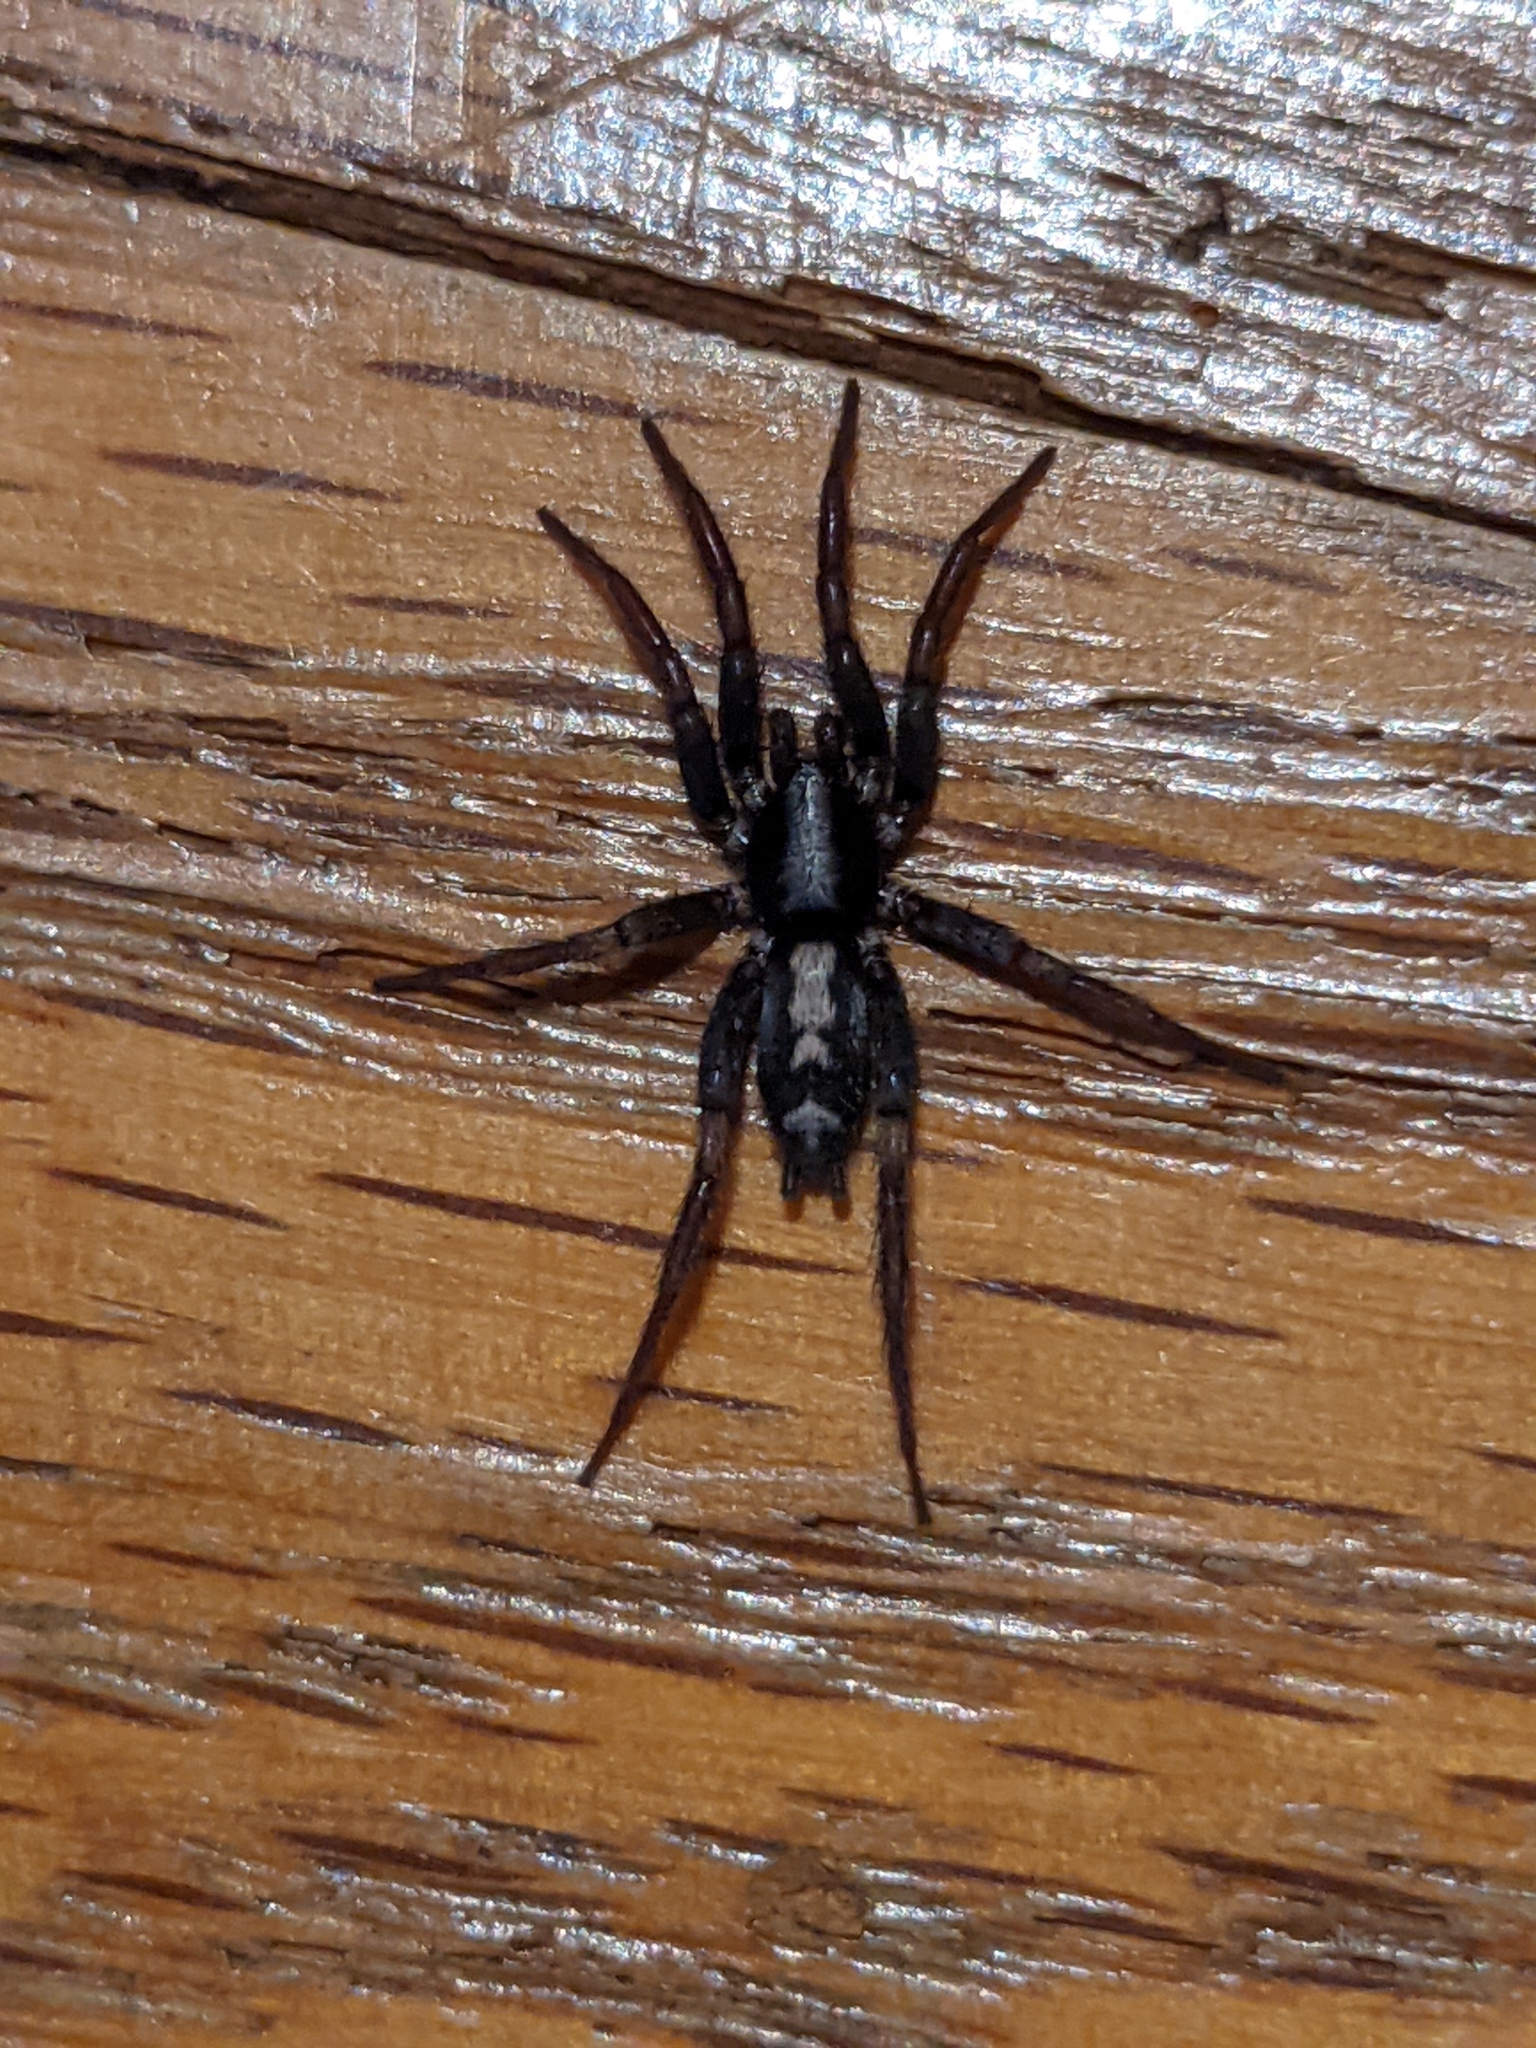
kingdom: Animalia
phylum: Arthropoda
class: Arachnida
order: Araneae
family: Gnaphosidae
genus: Herpyllus
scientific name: Herpyllus ecclesiasticus
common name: Eastern parson spider
